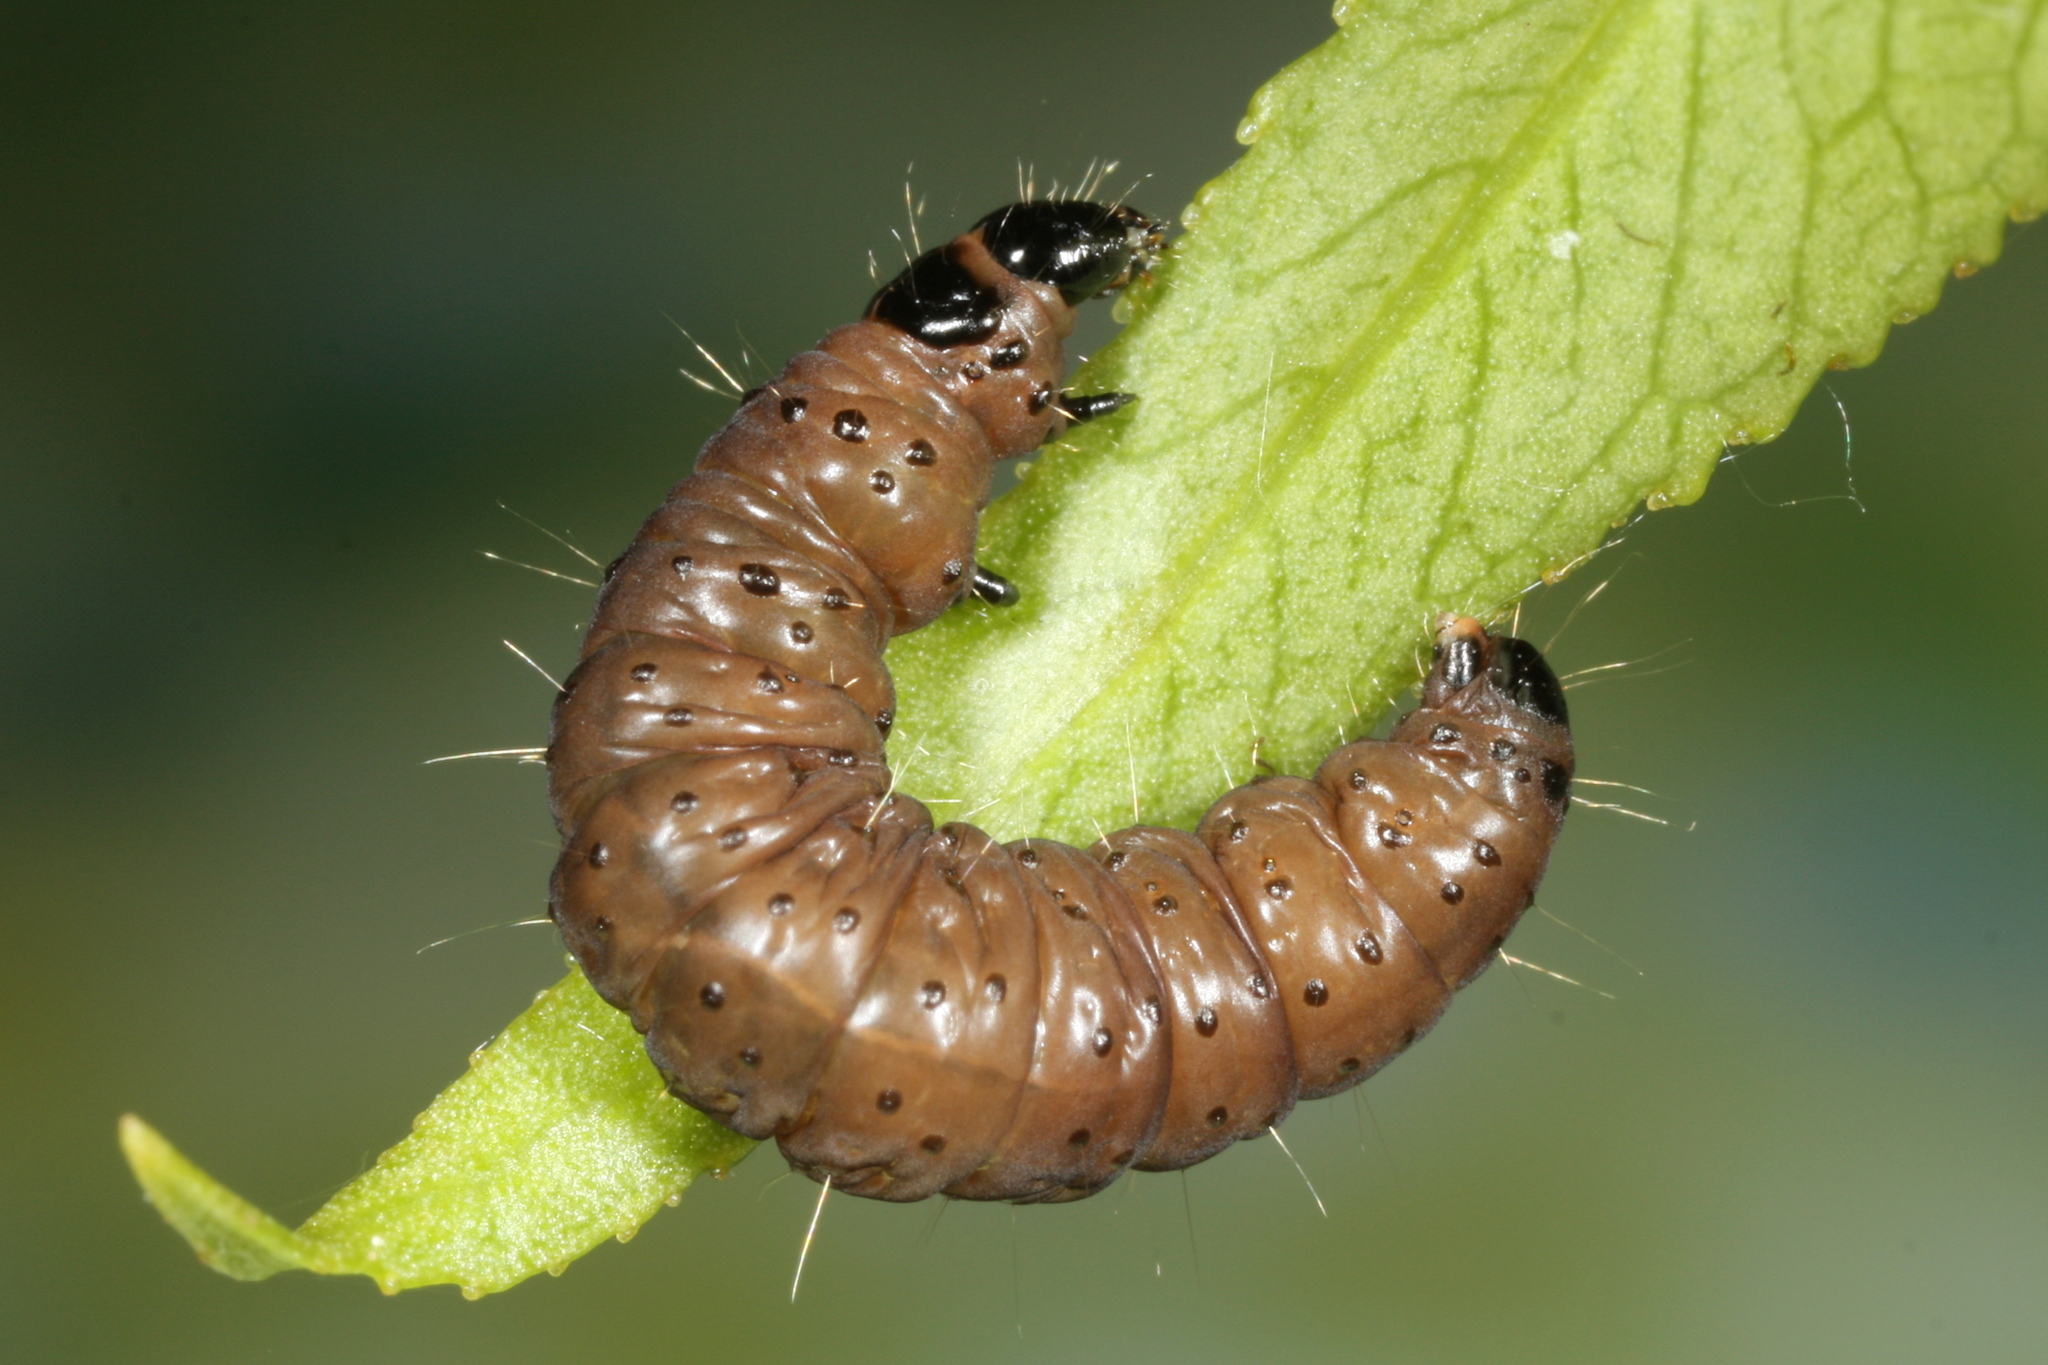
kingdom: Animalia
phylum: Arthropoda
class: Insecta
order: Lepidoptera
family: Tortricidae
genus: Hedya
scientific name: Hedya salicella
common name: Large tortricid moth
